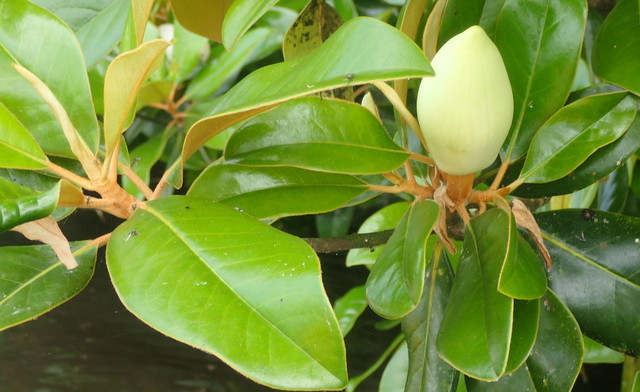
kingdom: Plantae
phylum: Tracheophyta
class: Magnoliopsida
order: Magnoliales
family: Magnoliaceae
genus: Magnolia
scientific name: Magnolia grandiflora
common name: Southern magnolia
